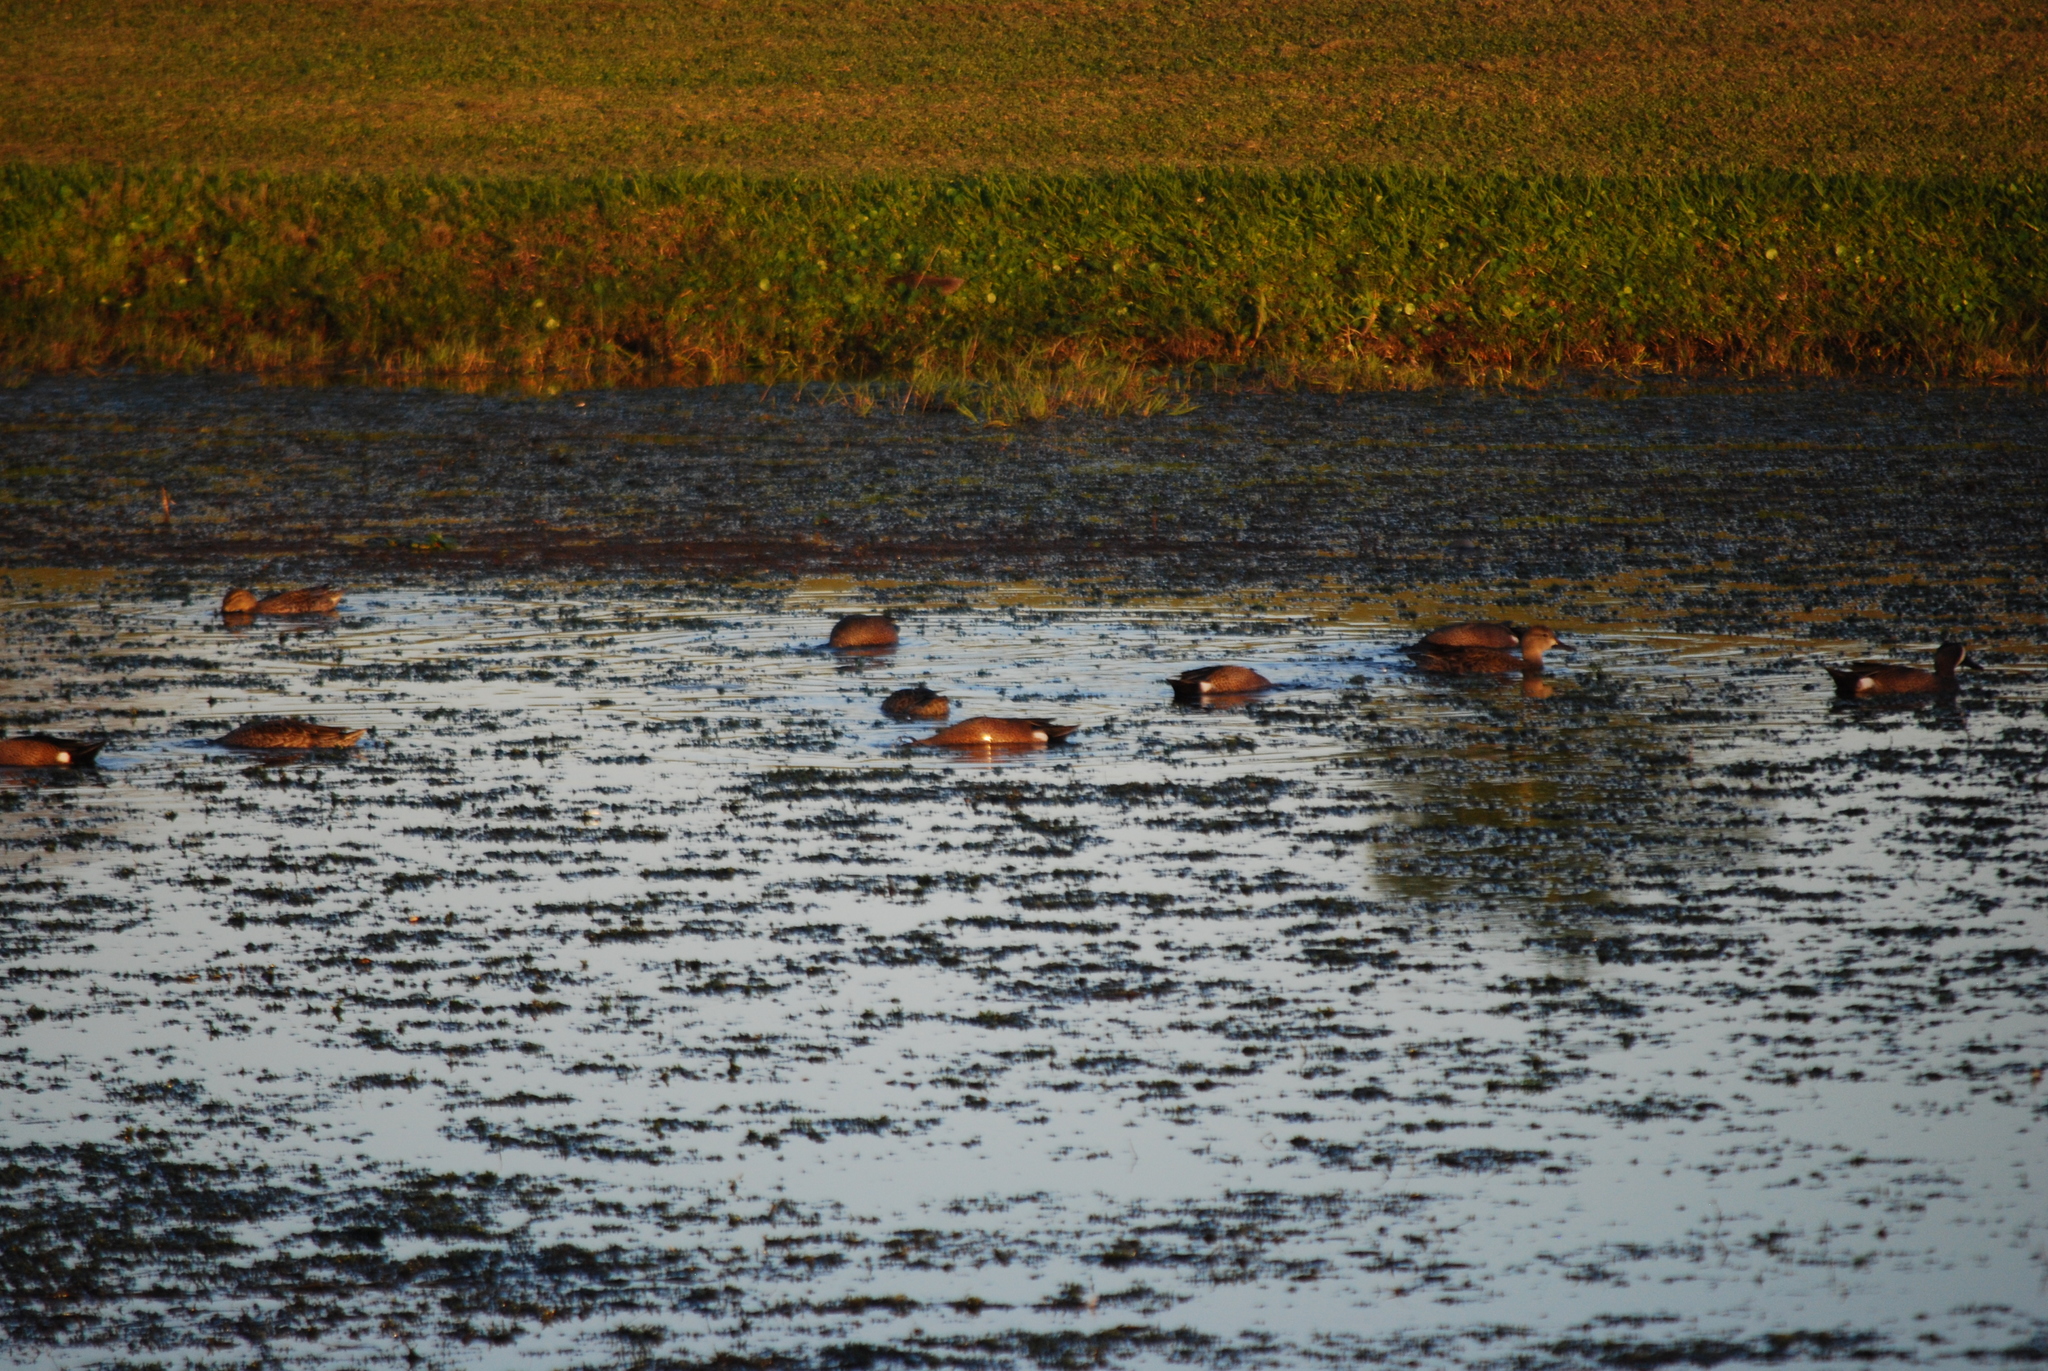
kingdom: Animalia
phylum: Chordata
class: Aves
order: Anseriformes
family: Anatidae
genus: Spatula
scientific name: Spatula discors
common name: Blue-winged teal
